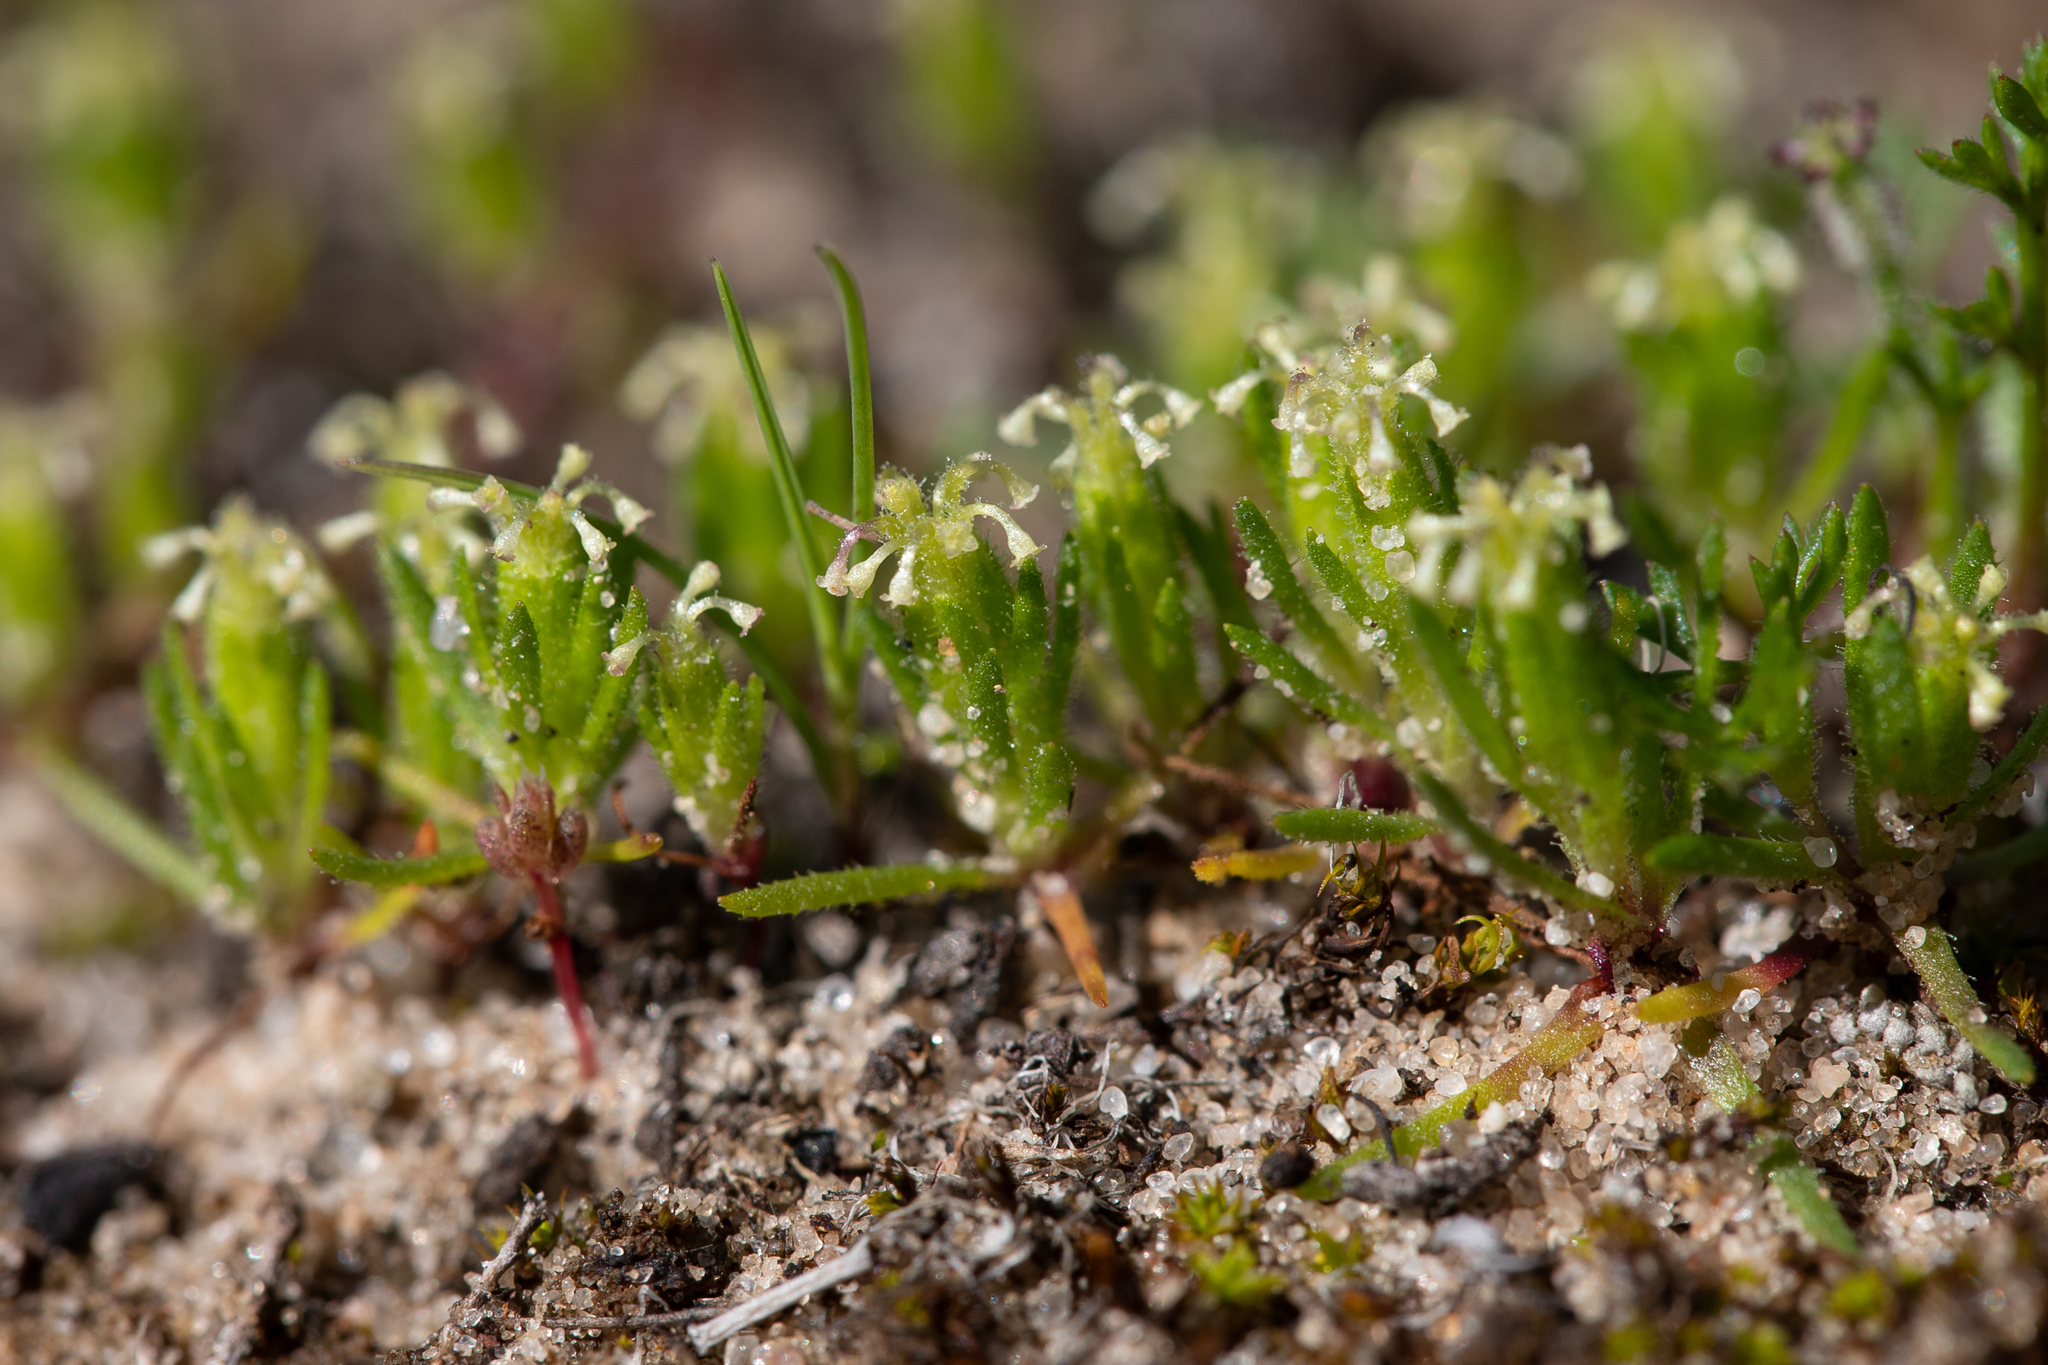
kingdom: Plantae
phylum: Tracheophyta
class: Magnoliopsida
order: Asterales
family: Asteraceae
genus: Millotia
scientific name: Millotia muelleri
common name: Common bow-flower
